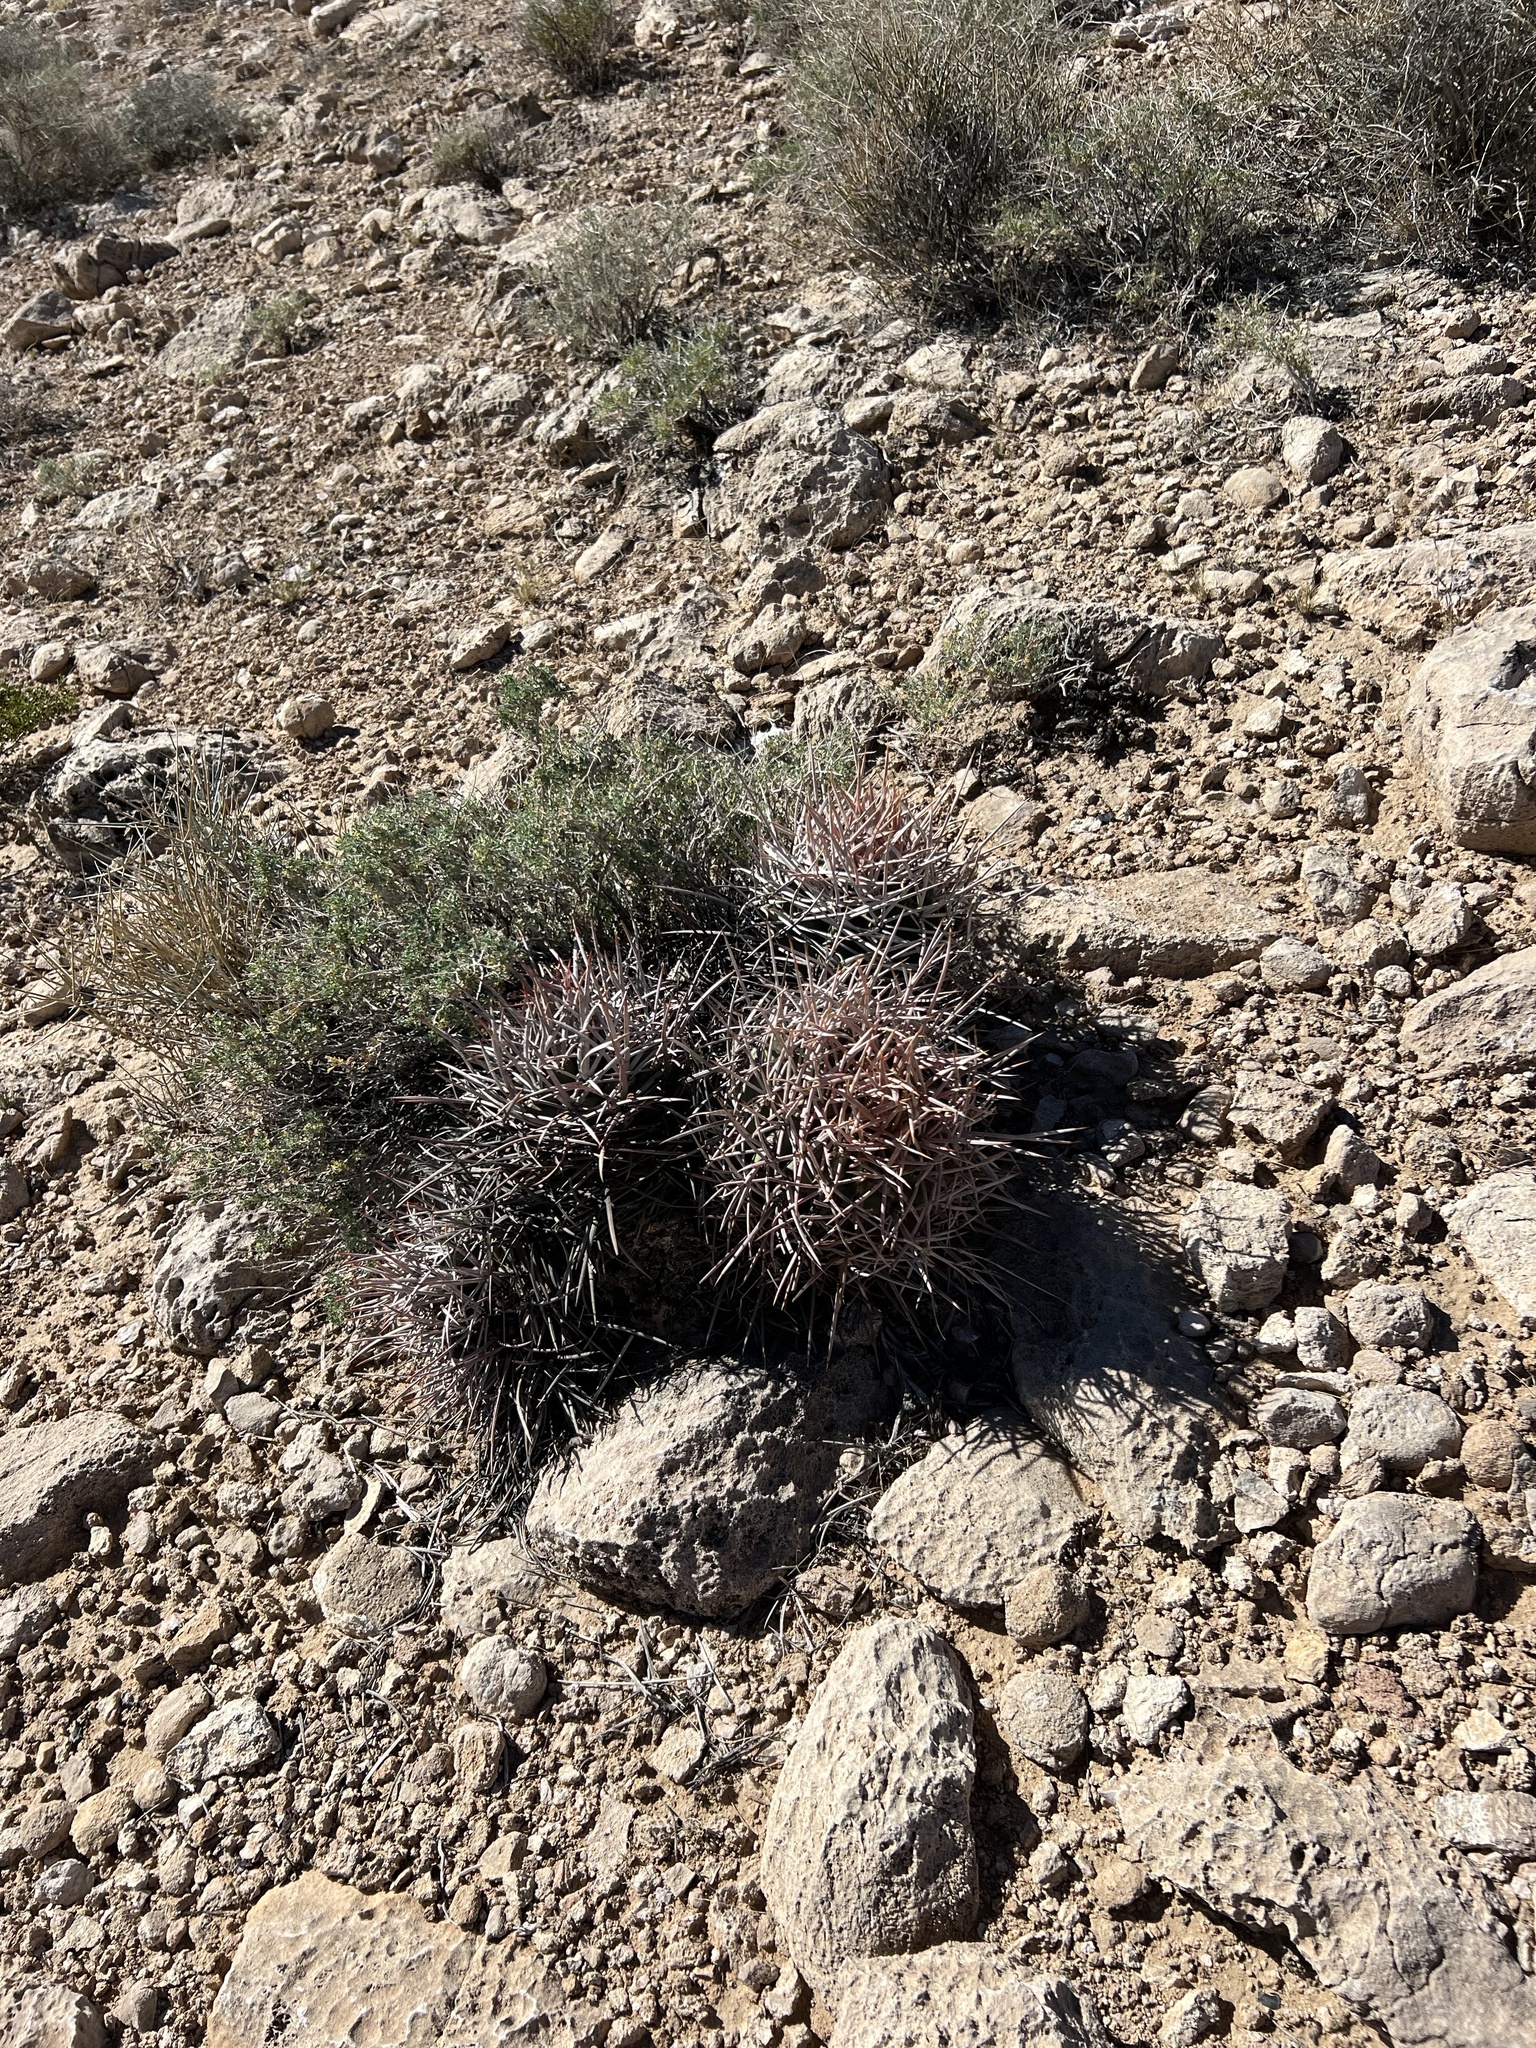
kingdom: Plantae
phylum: Tracheophyta
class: Magnoliopsida
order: Caryophyllales
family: Cactaceae
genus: Echinocactus
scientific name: Echinocactus polycephalus
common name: Cottontop cactus
